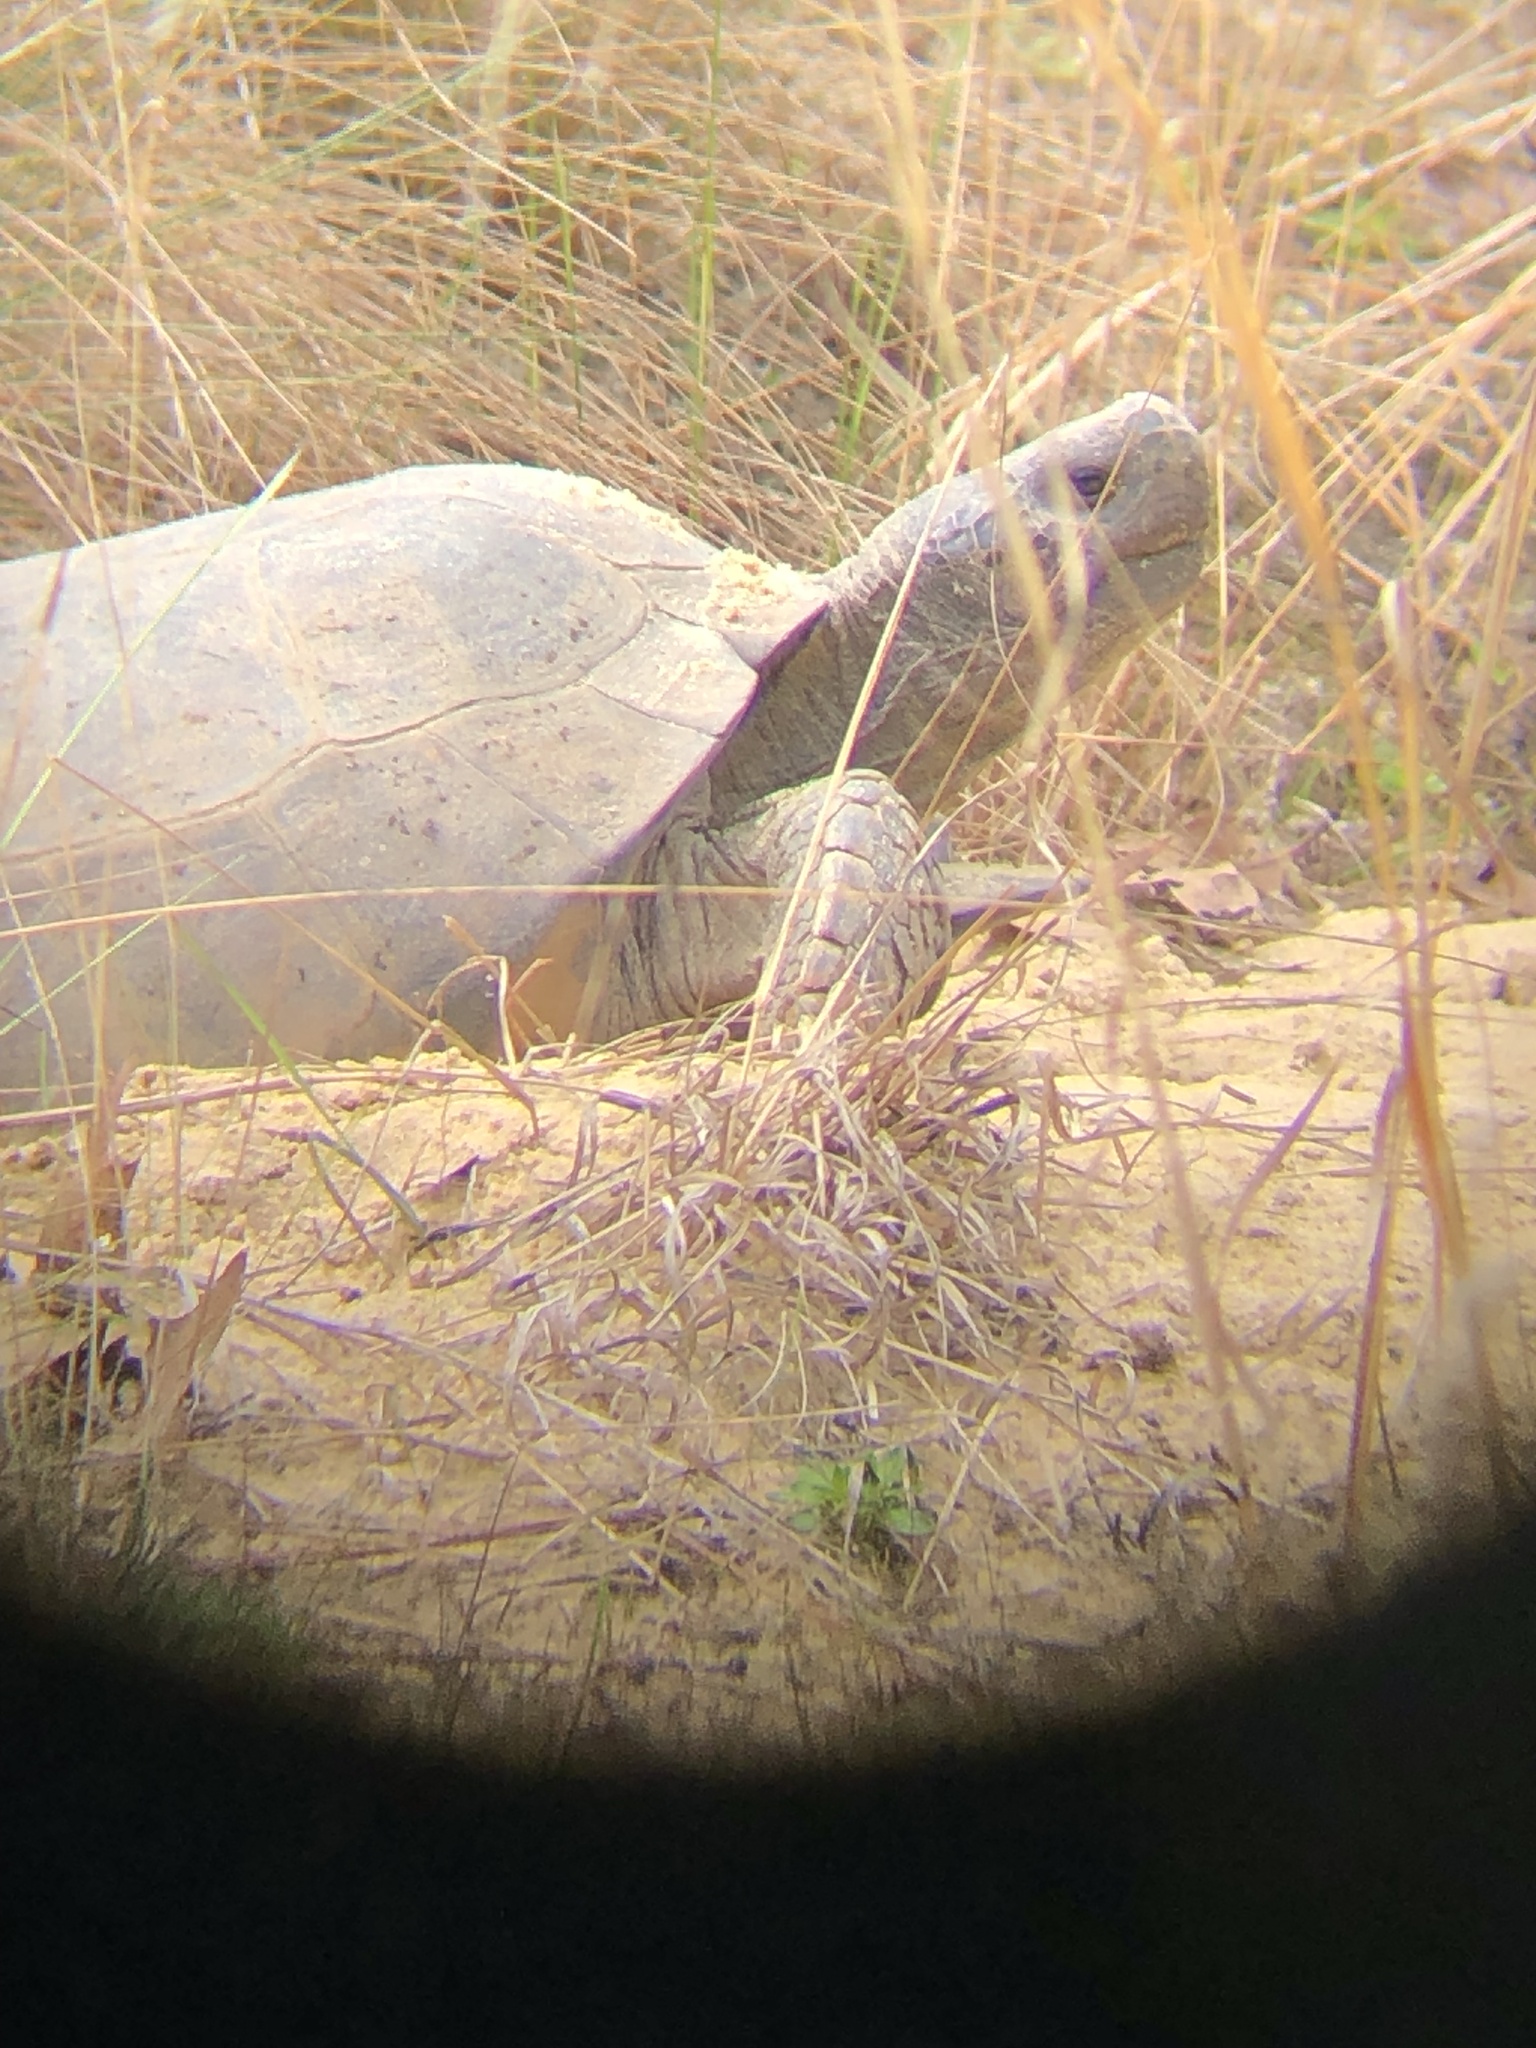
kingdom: Animalia
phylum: Chordata
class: Testudines
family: Testudinidae
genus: Gopherus
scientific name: Gopherus polyphemus
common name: Florida gopher tortoise
